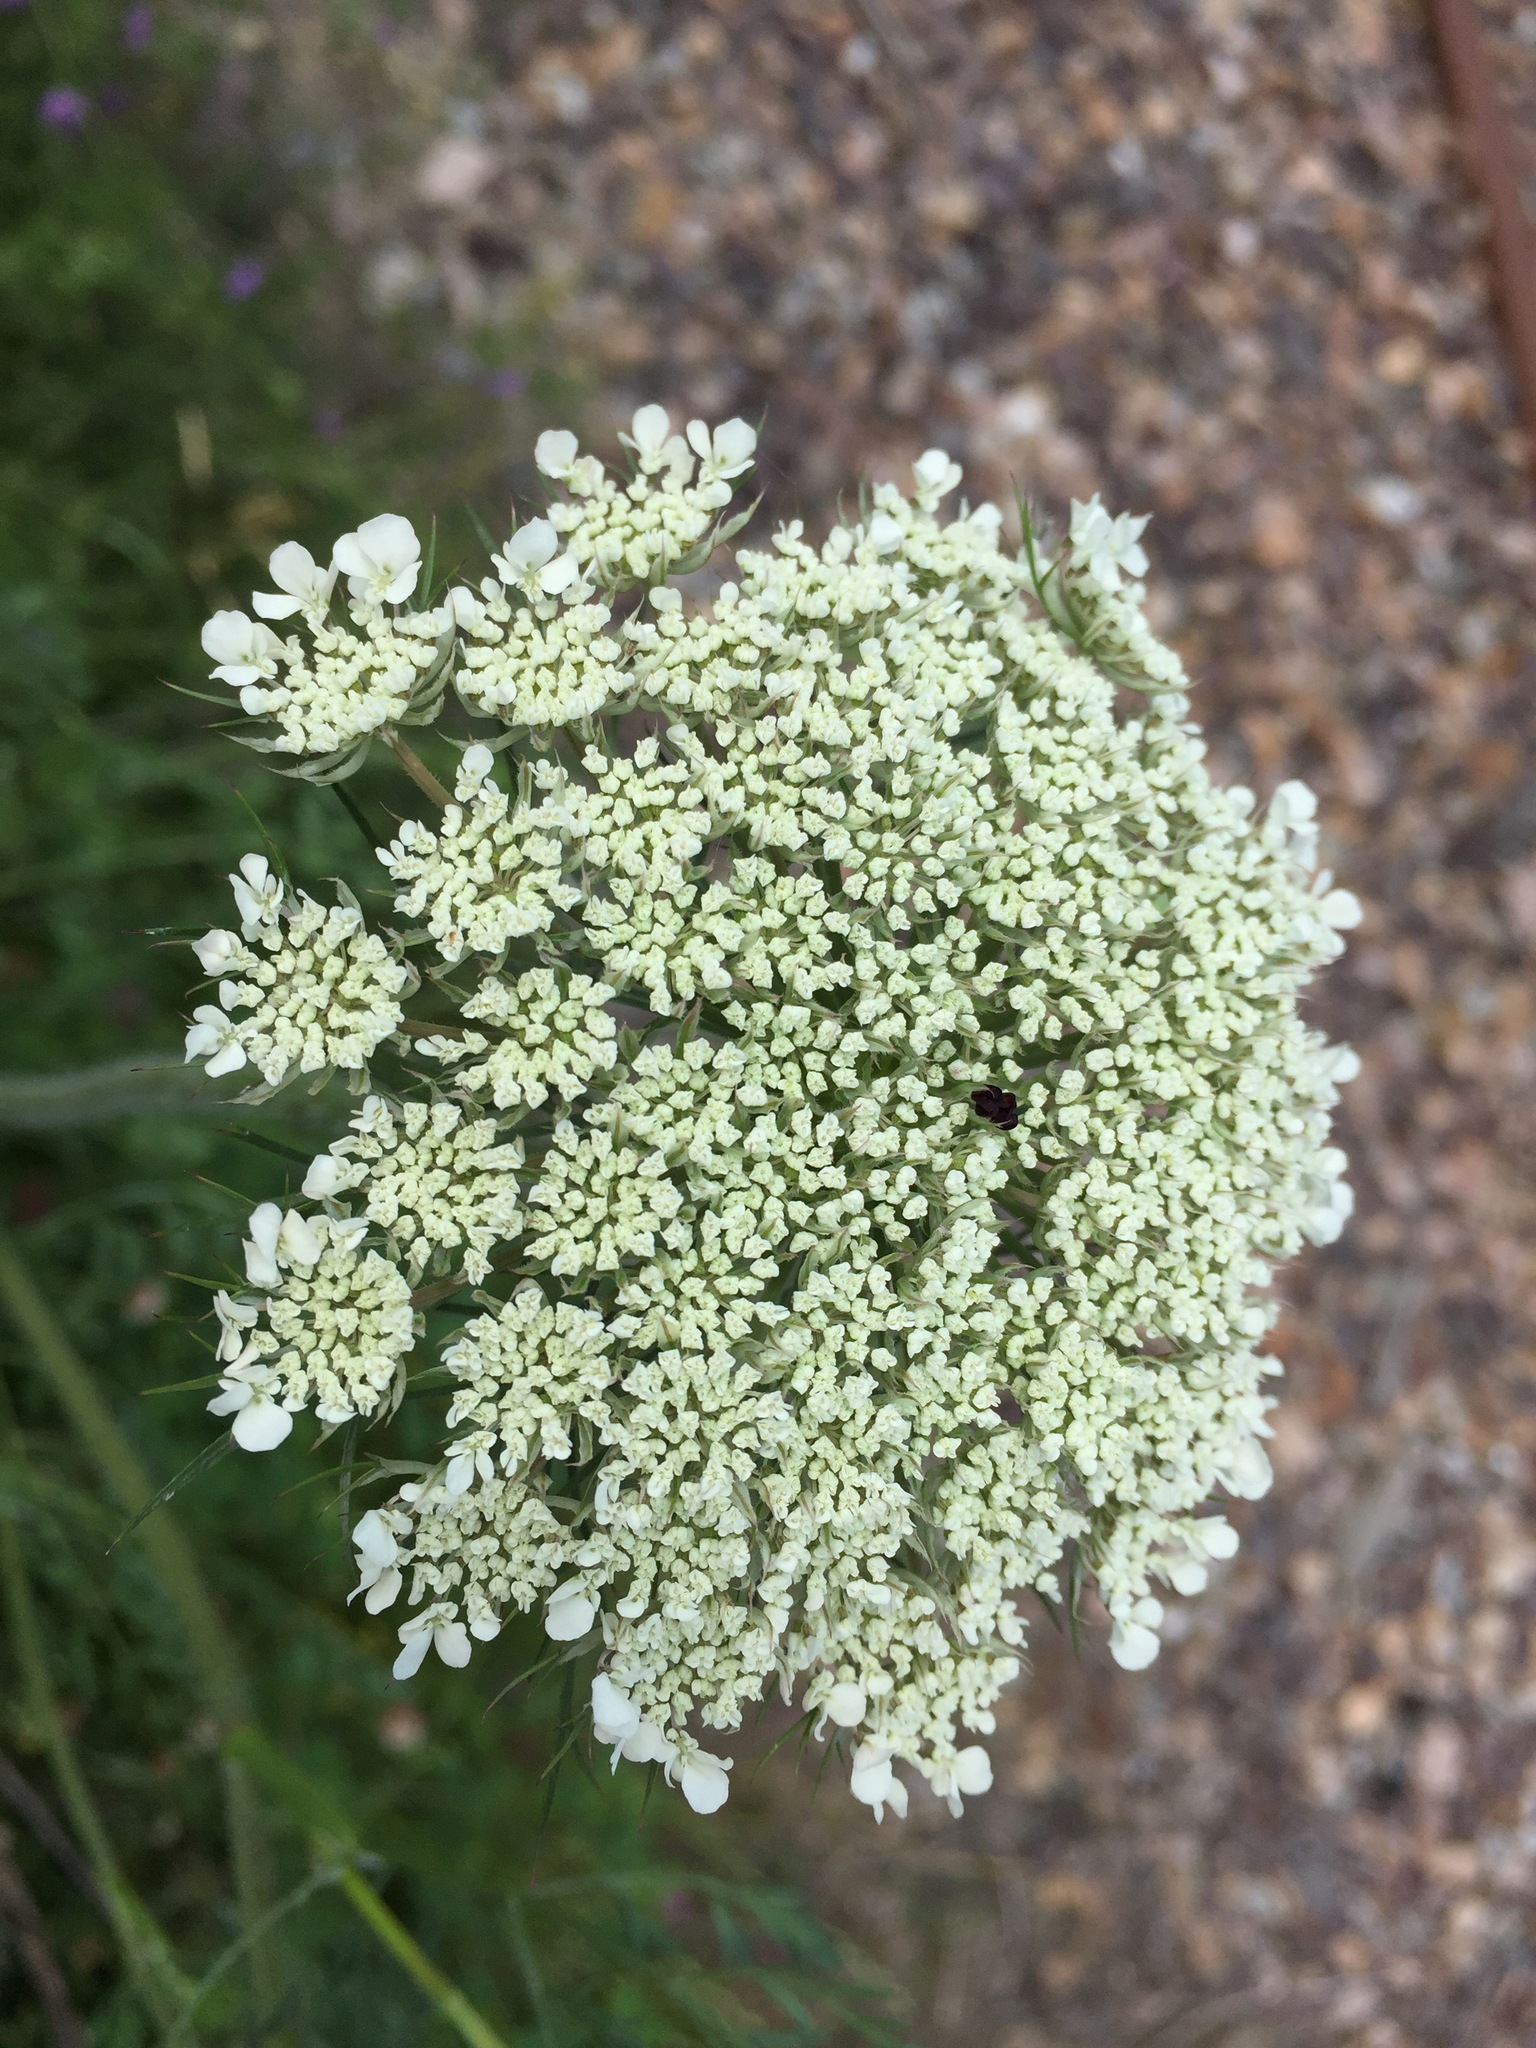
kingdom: Plantae
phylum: Tracheophyta
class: Magnoliopsida
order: Apiales
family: Apiaceae
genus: Daucus
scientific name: Daucus carota
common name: Wild carrot
